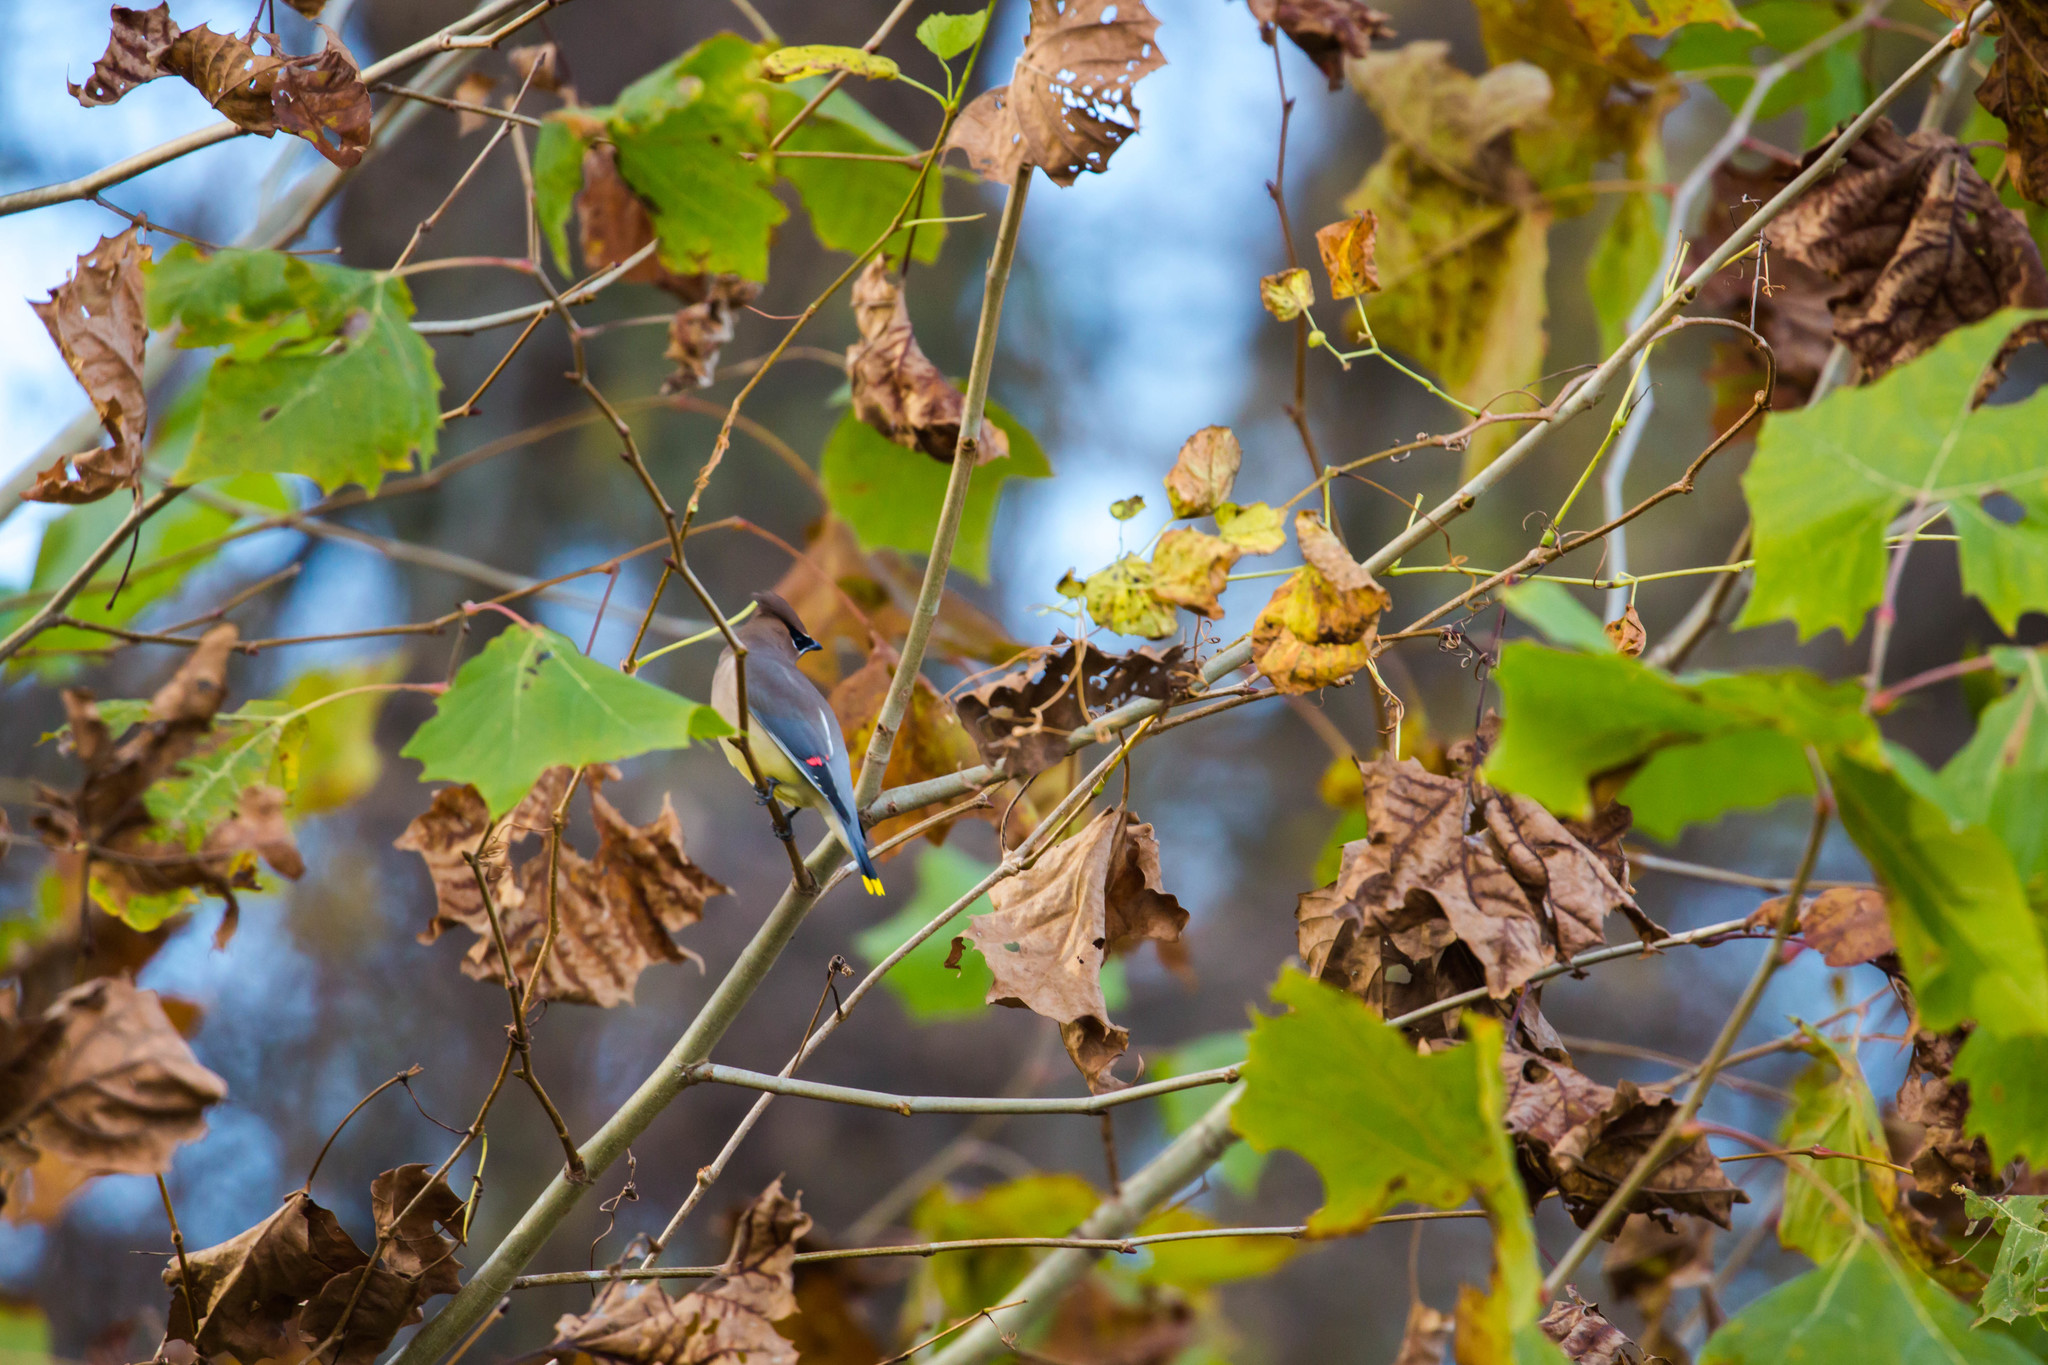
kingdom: Animalia
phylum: Chordata
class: Aves
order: Passeriformes
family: Bombycillidae
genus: Bombycilla
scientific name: Bombycilla cedrorum
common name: Cedar waxwing
